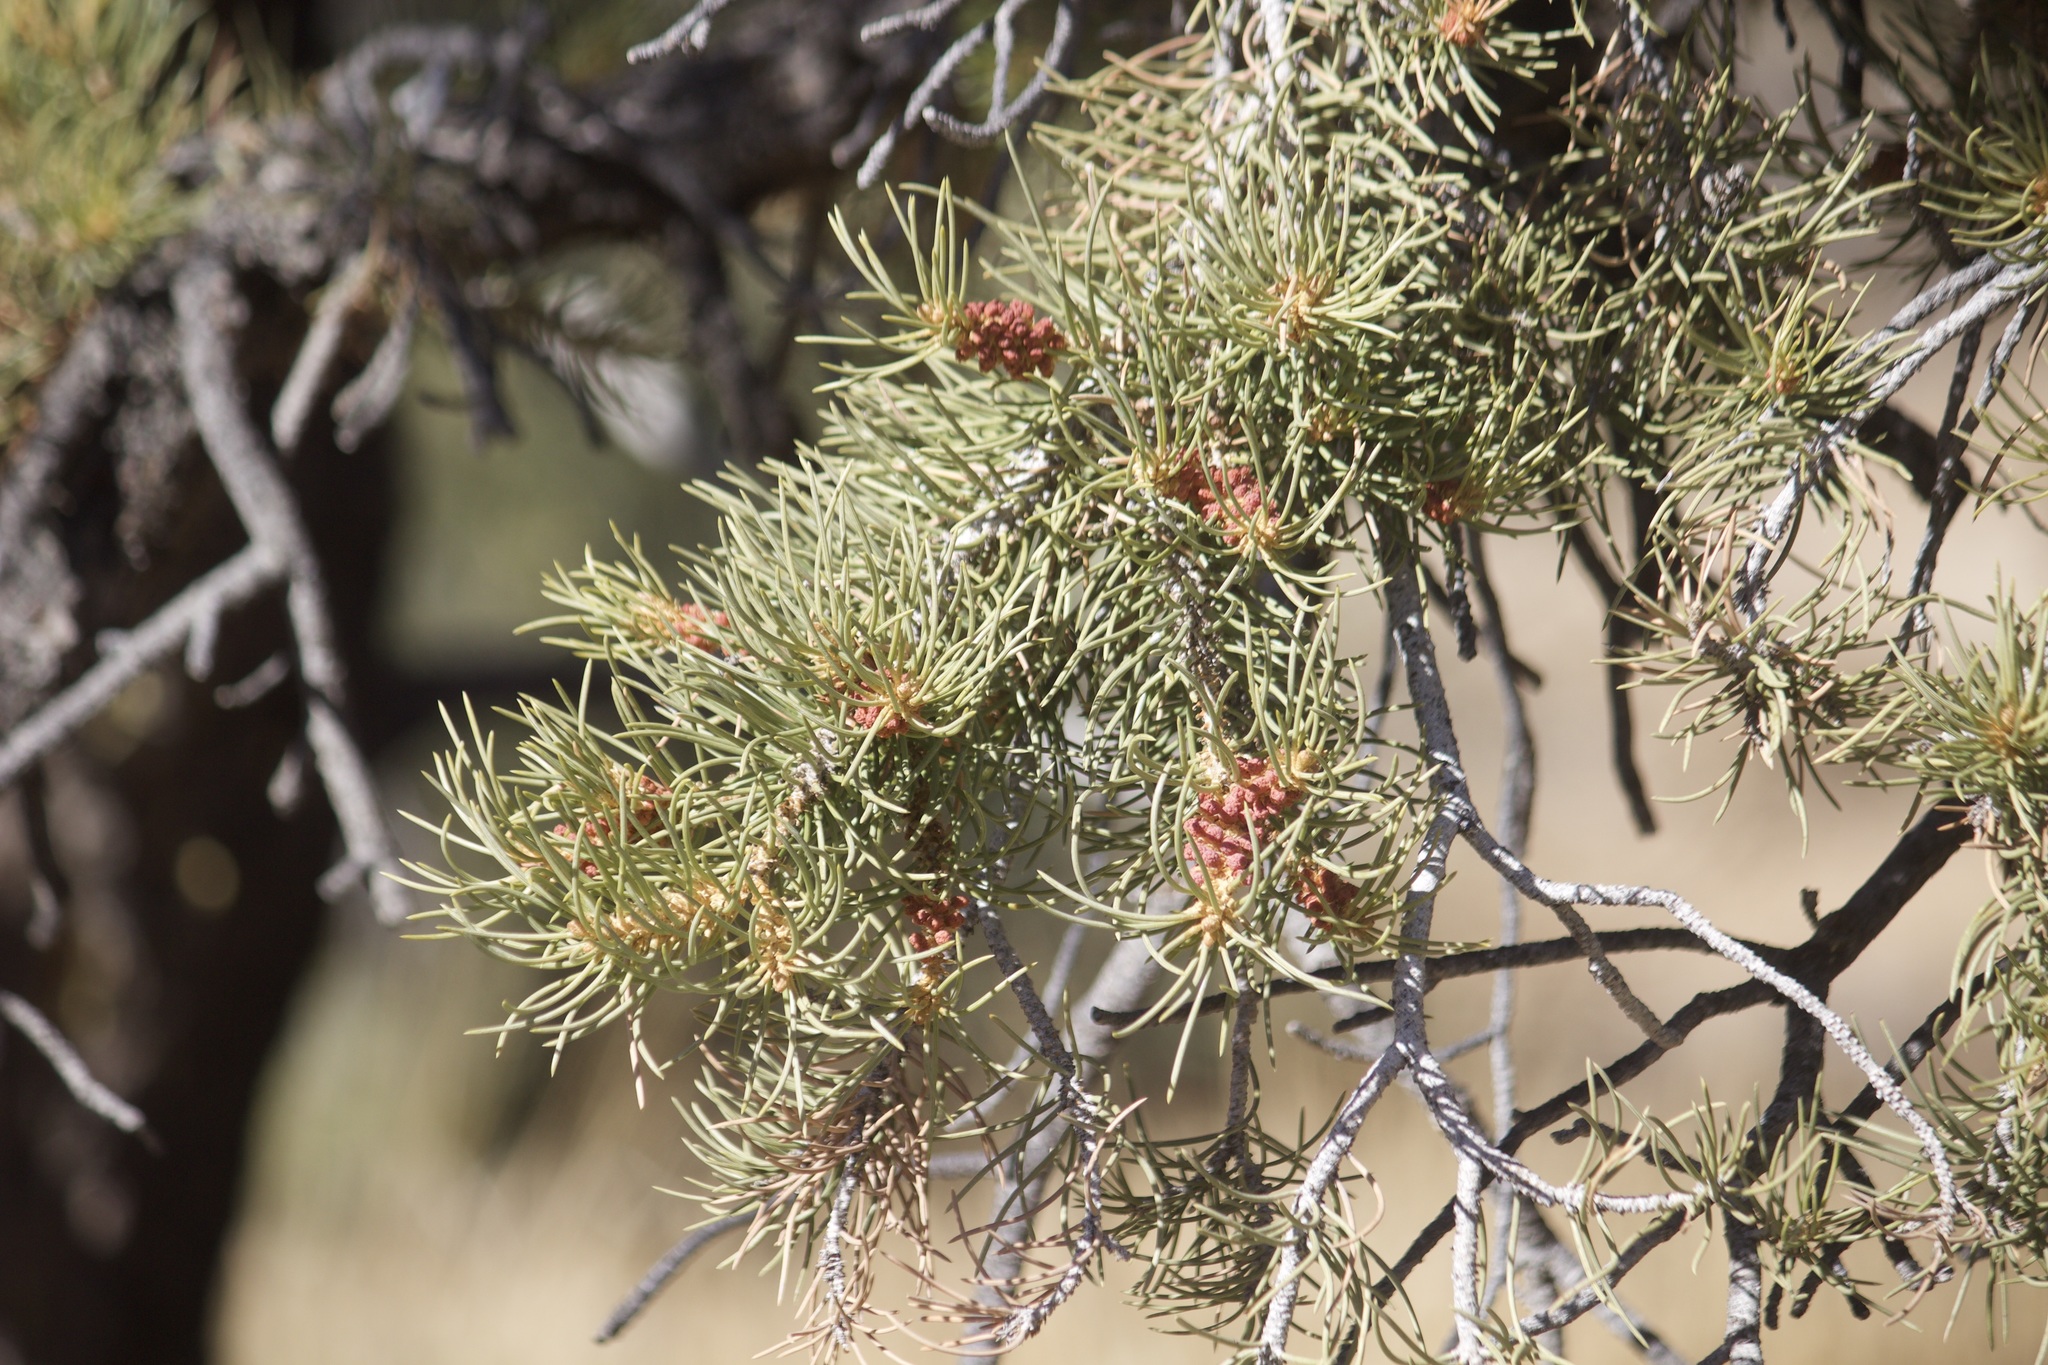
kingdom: Plantae
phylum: Tracheophyta
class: Pinopsida
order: Pinales
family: Pinaceae
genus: Pinus
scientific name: Pinus monophylla
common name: One-leaved nut pine
